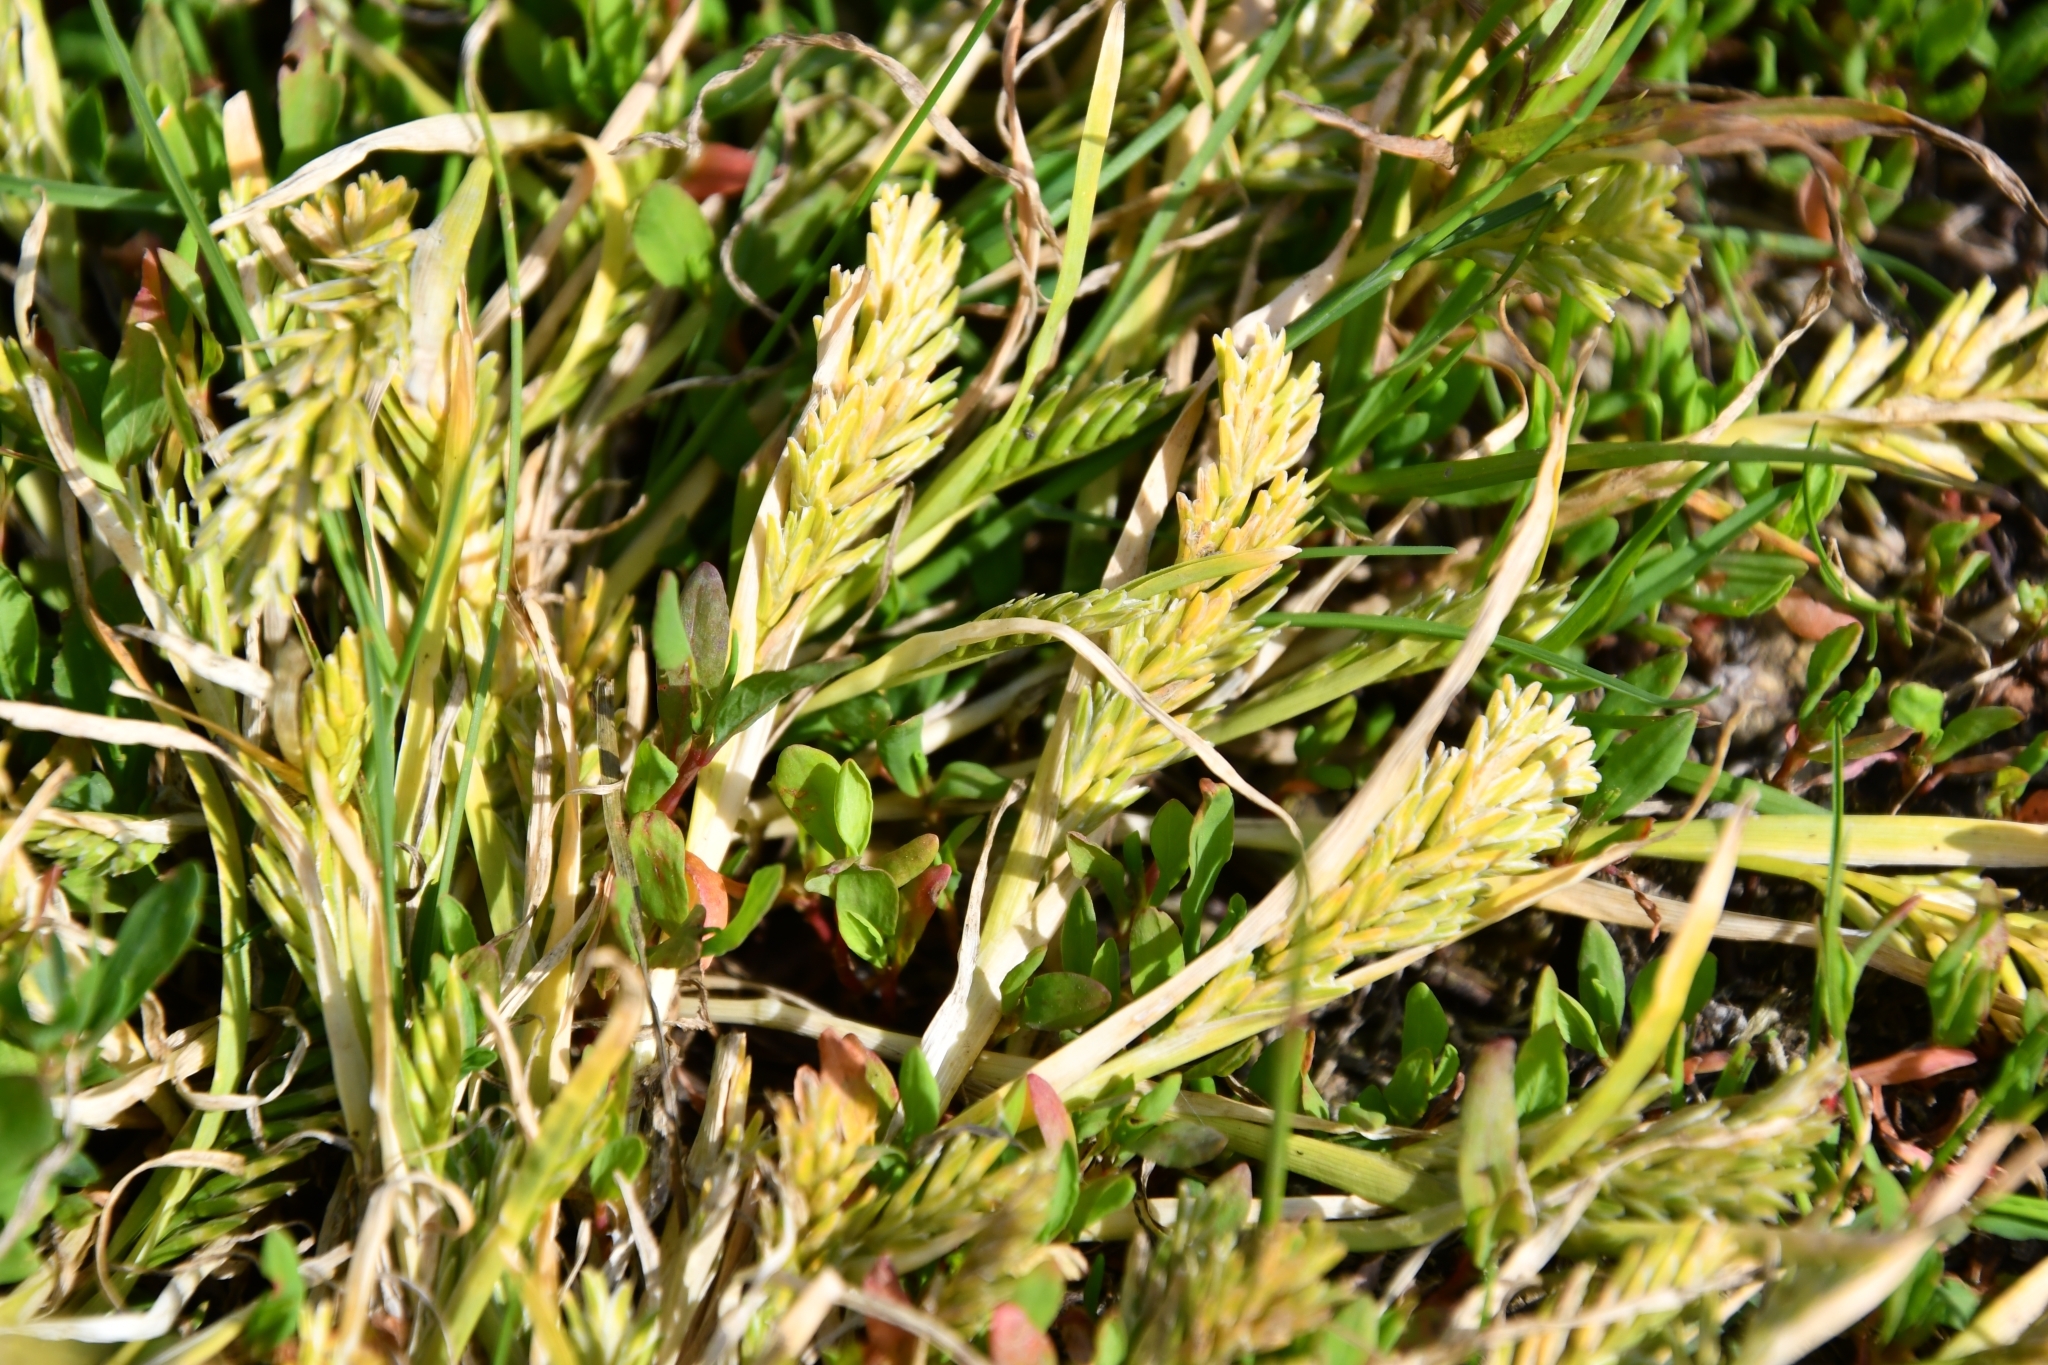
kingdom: Plantae
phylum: Tracheophyta
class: Liliopsida
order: Poales
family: Poaceae
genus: Sclerochloa
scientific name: Sclerochloa dura
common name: Common hardgrass
